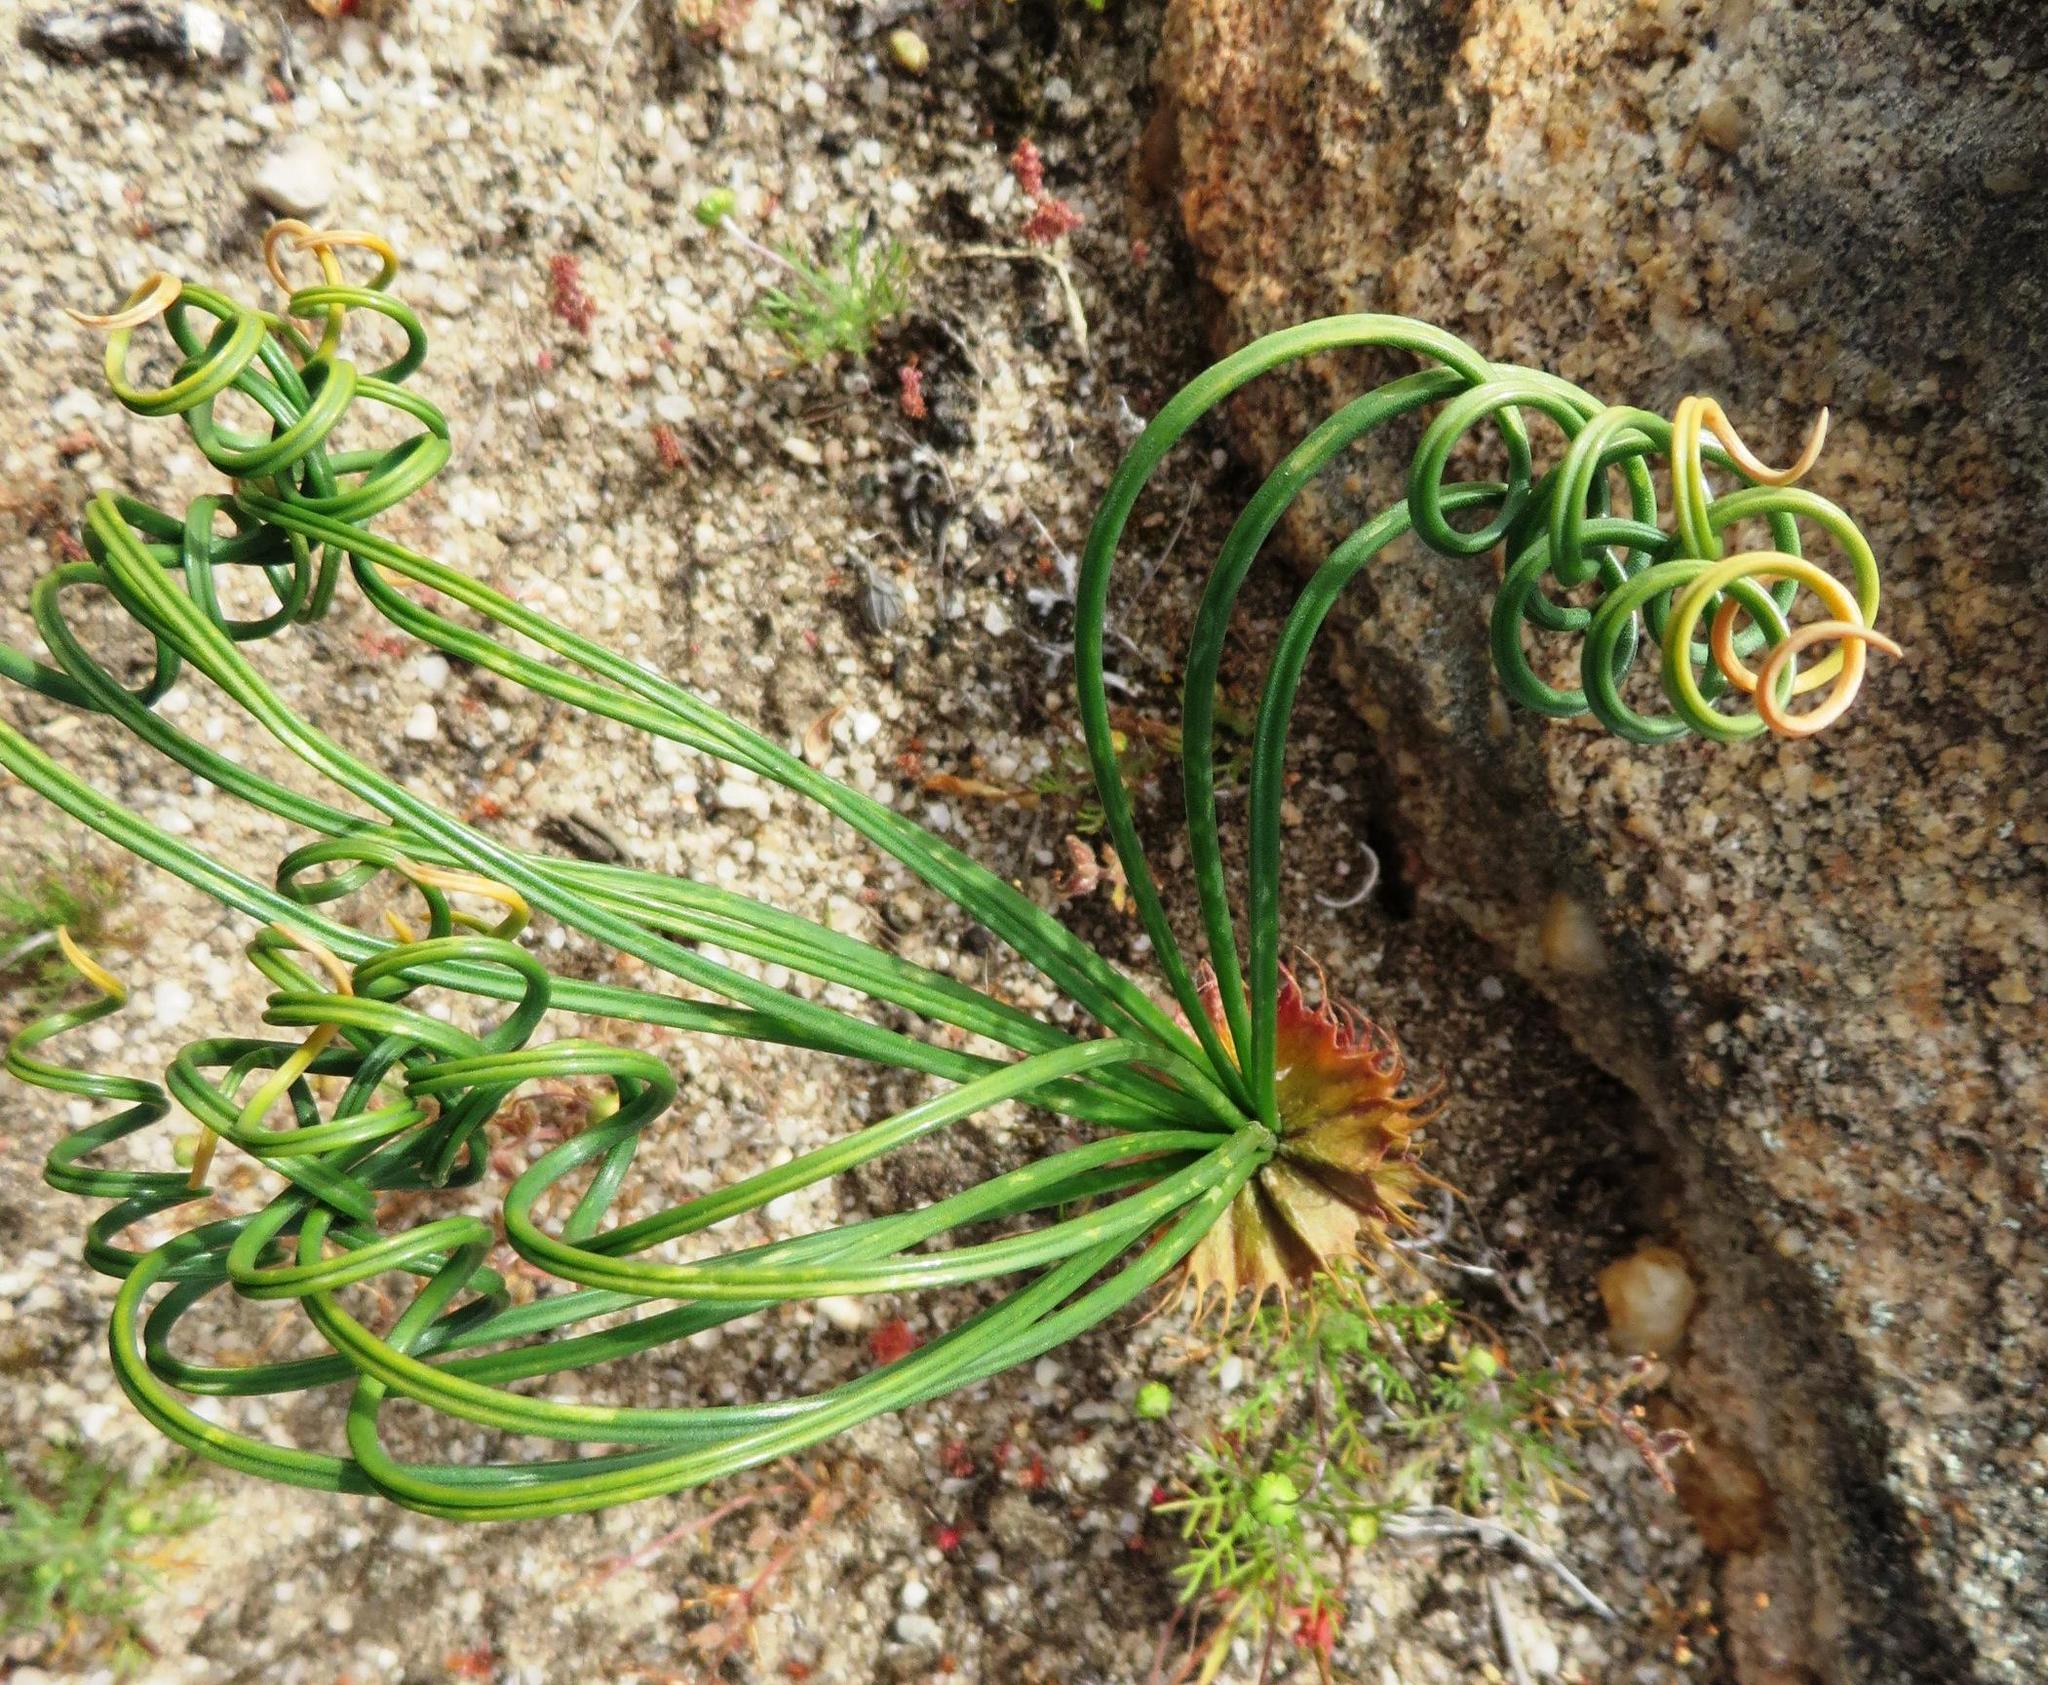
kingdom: Plantae
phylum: Tracheophyta
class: Liliopsida
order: Asparagales
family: Amaryllidaceae
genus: Gethyllis
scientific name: Gethyllis verticillata
